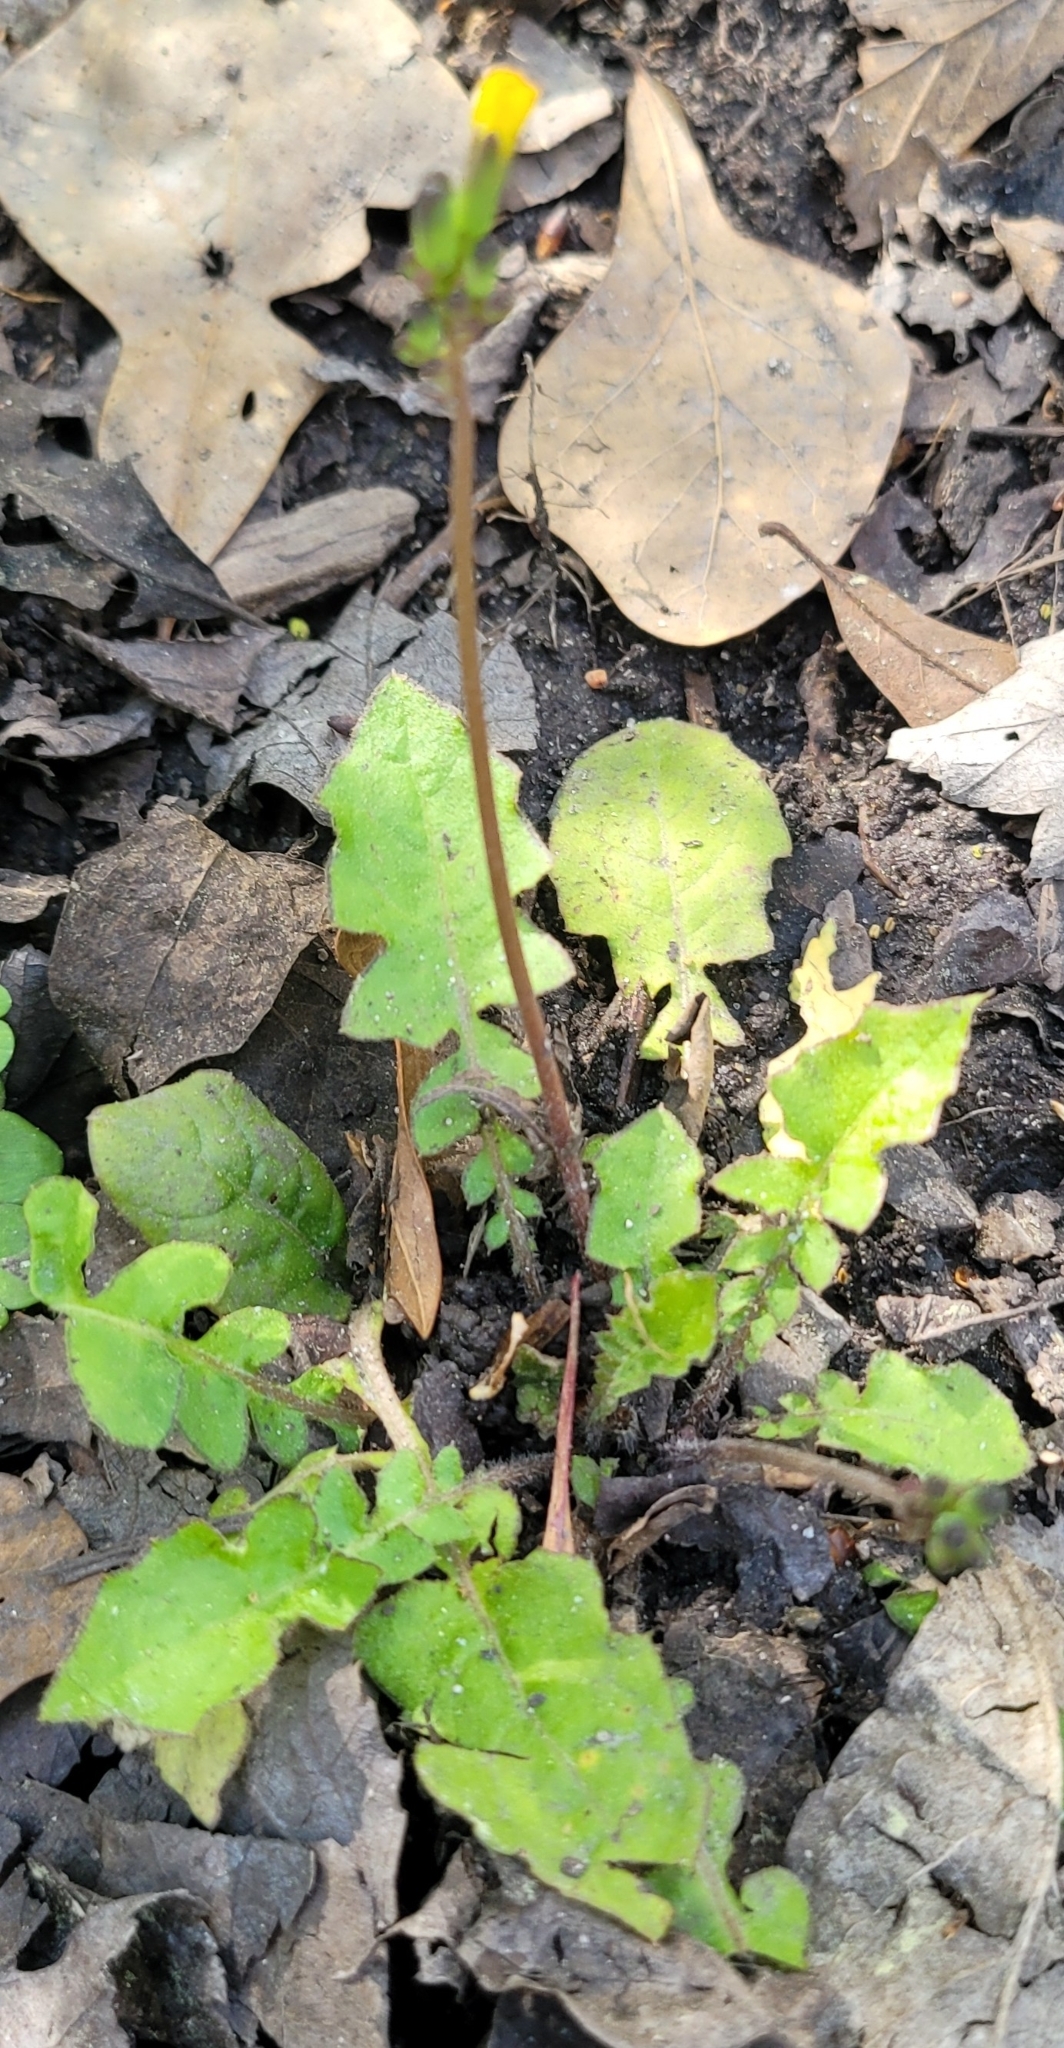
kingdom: Plantae
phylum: Tracheophyta
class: Magnoliopsida
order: Asterales
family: Asteraceae
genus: Youngia
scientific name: Youngia japonica
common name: Oriental false hawksbeard
